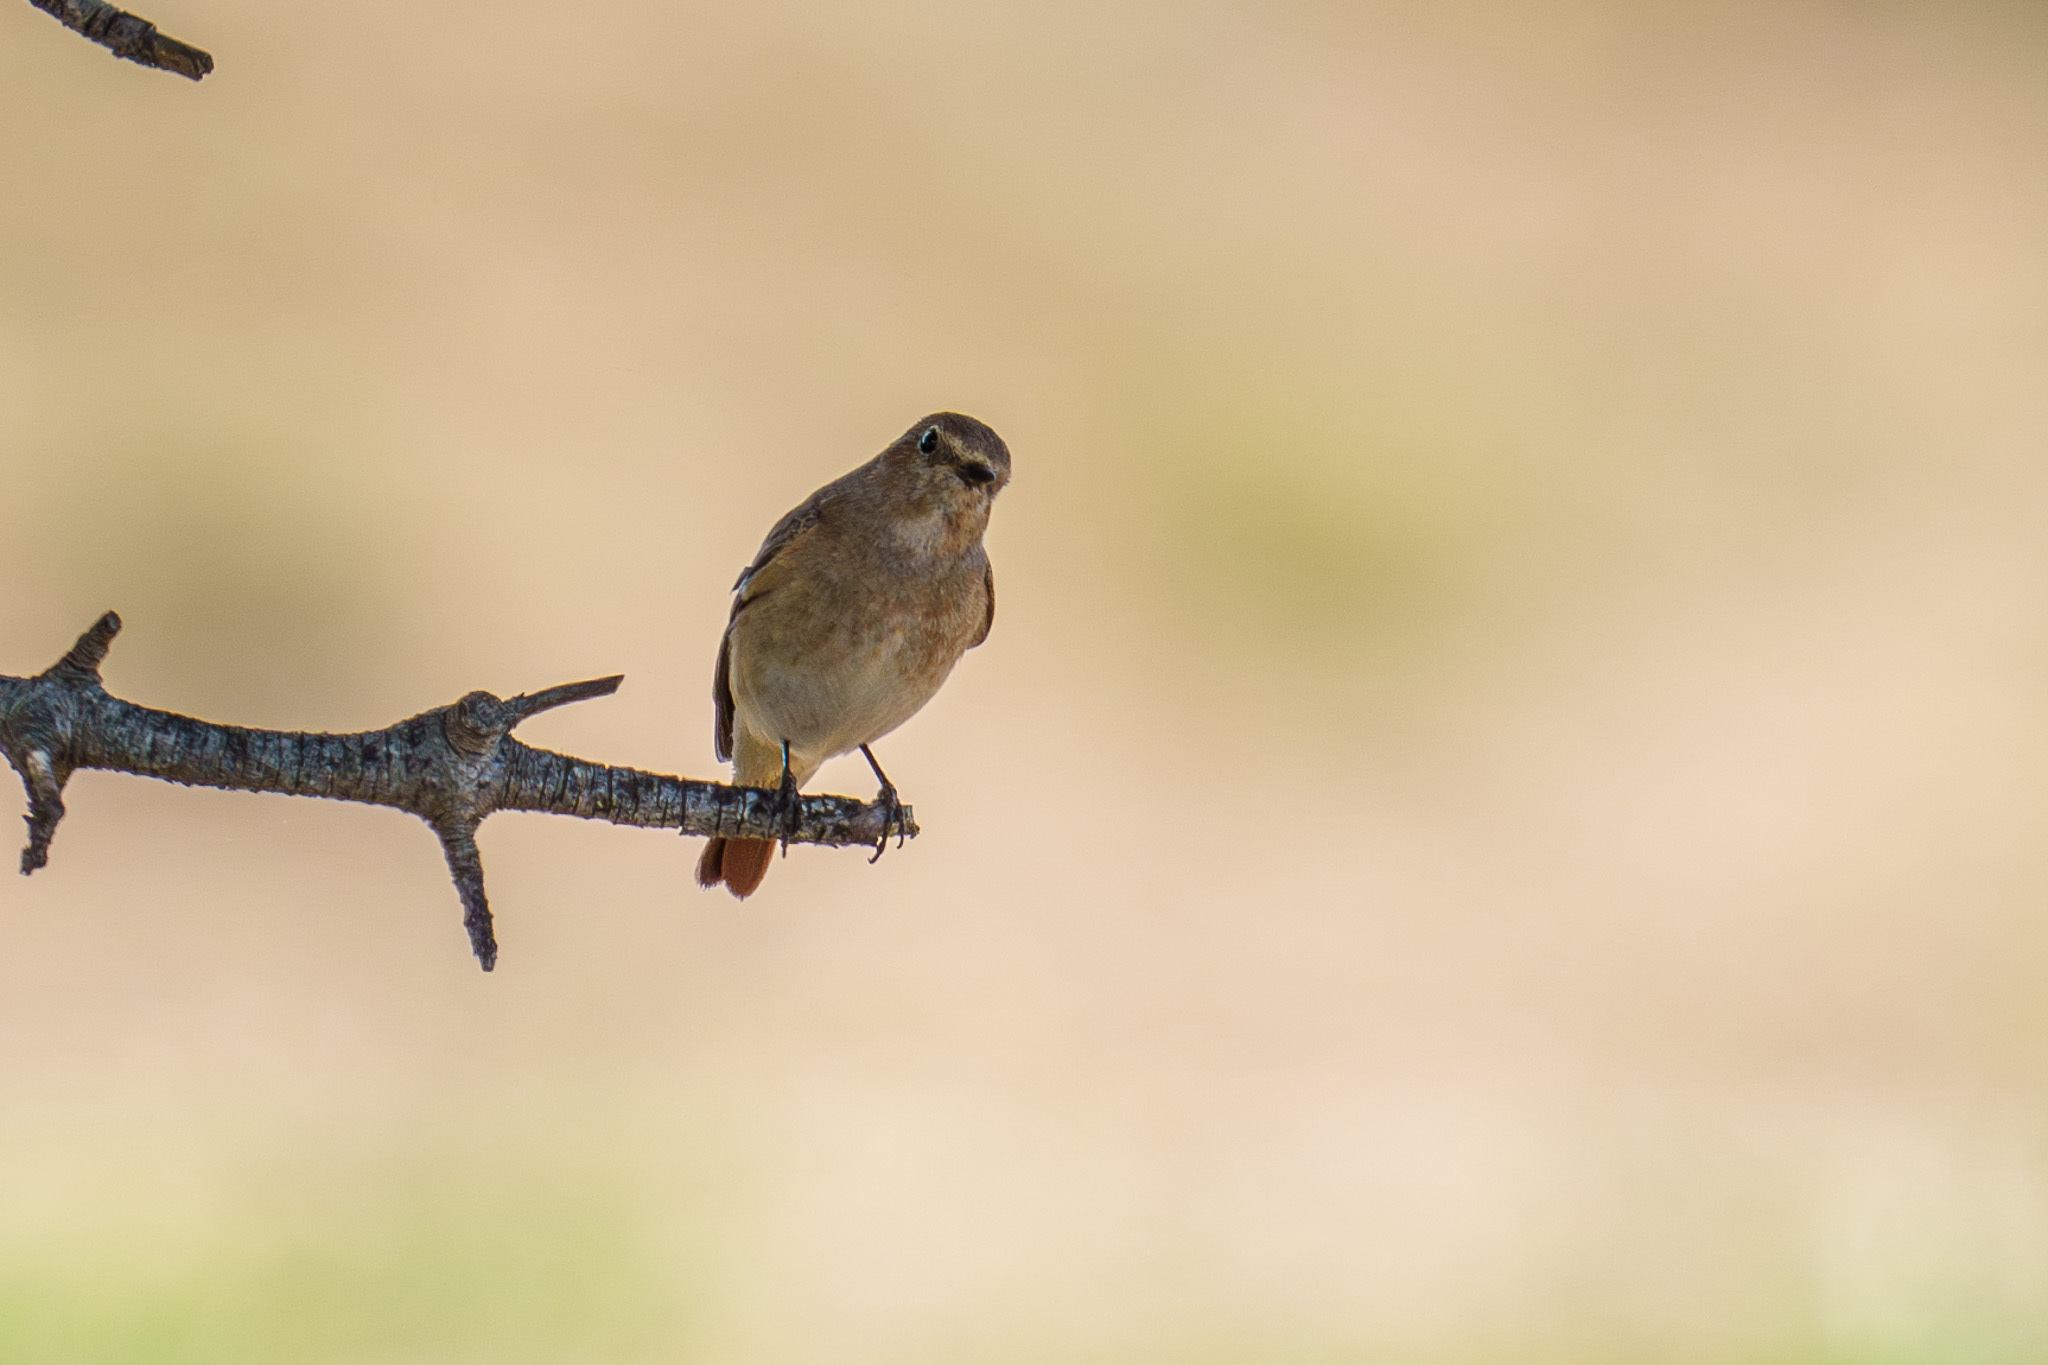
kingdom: Animalia
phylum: Chordata
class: Aves
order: Passeriformes
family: Muscicapidae
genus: Phoenicurus
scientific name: Phoenicurus phoenicurus
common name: Common redstart
